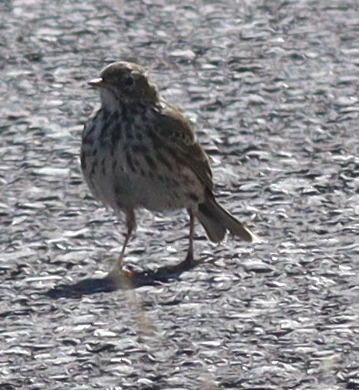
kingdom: Animalia
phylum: Chordata
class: Aves
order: Passeriformes
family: Motacillidae
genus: Anthus
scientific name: Anthus pratensis
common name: Meadow pipit
